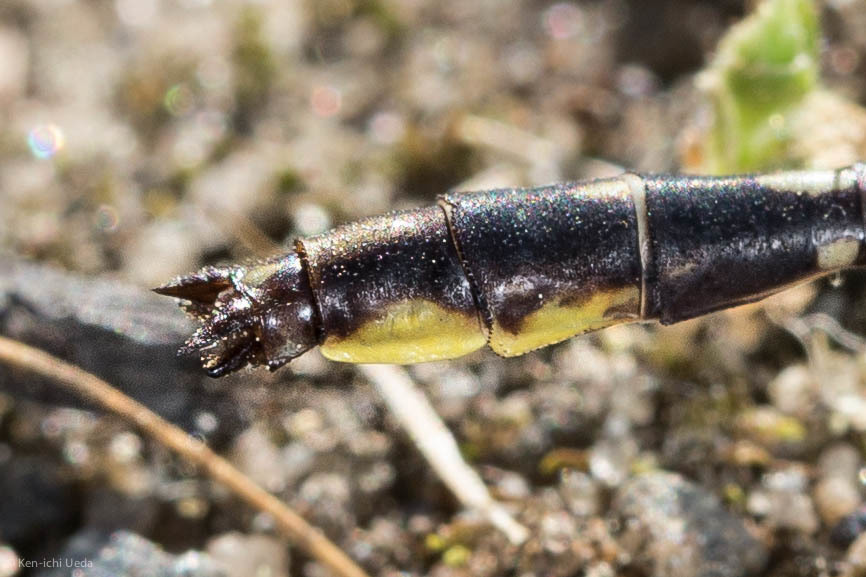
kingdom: Animalia
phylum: Arthropoda
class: Insecta
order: Odonata
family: Gomphidae
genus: Phanogomphus
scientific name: Phanogomphus exilis
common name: Lancet clubtail
